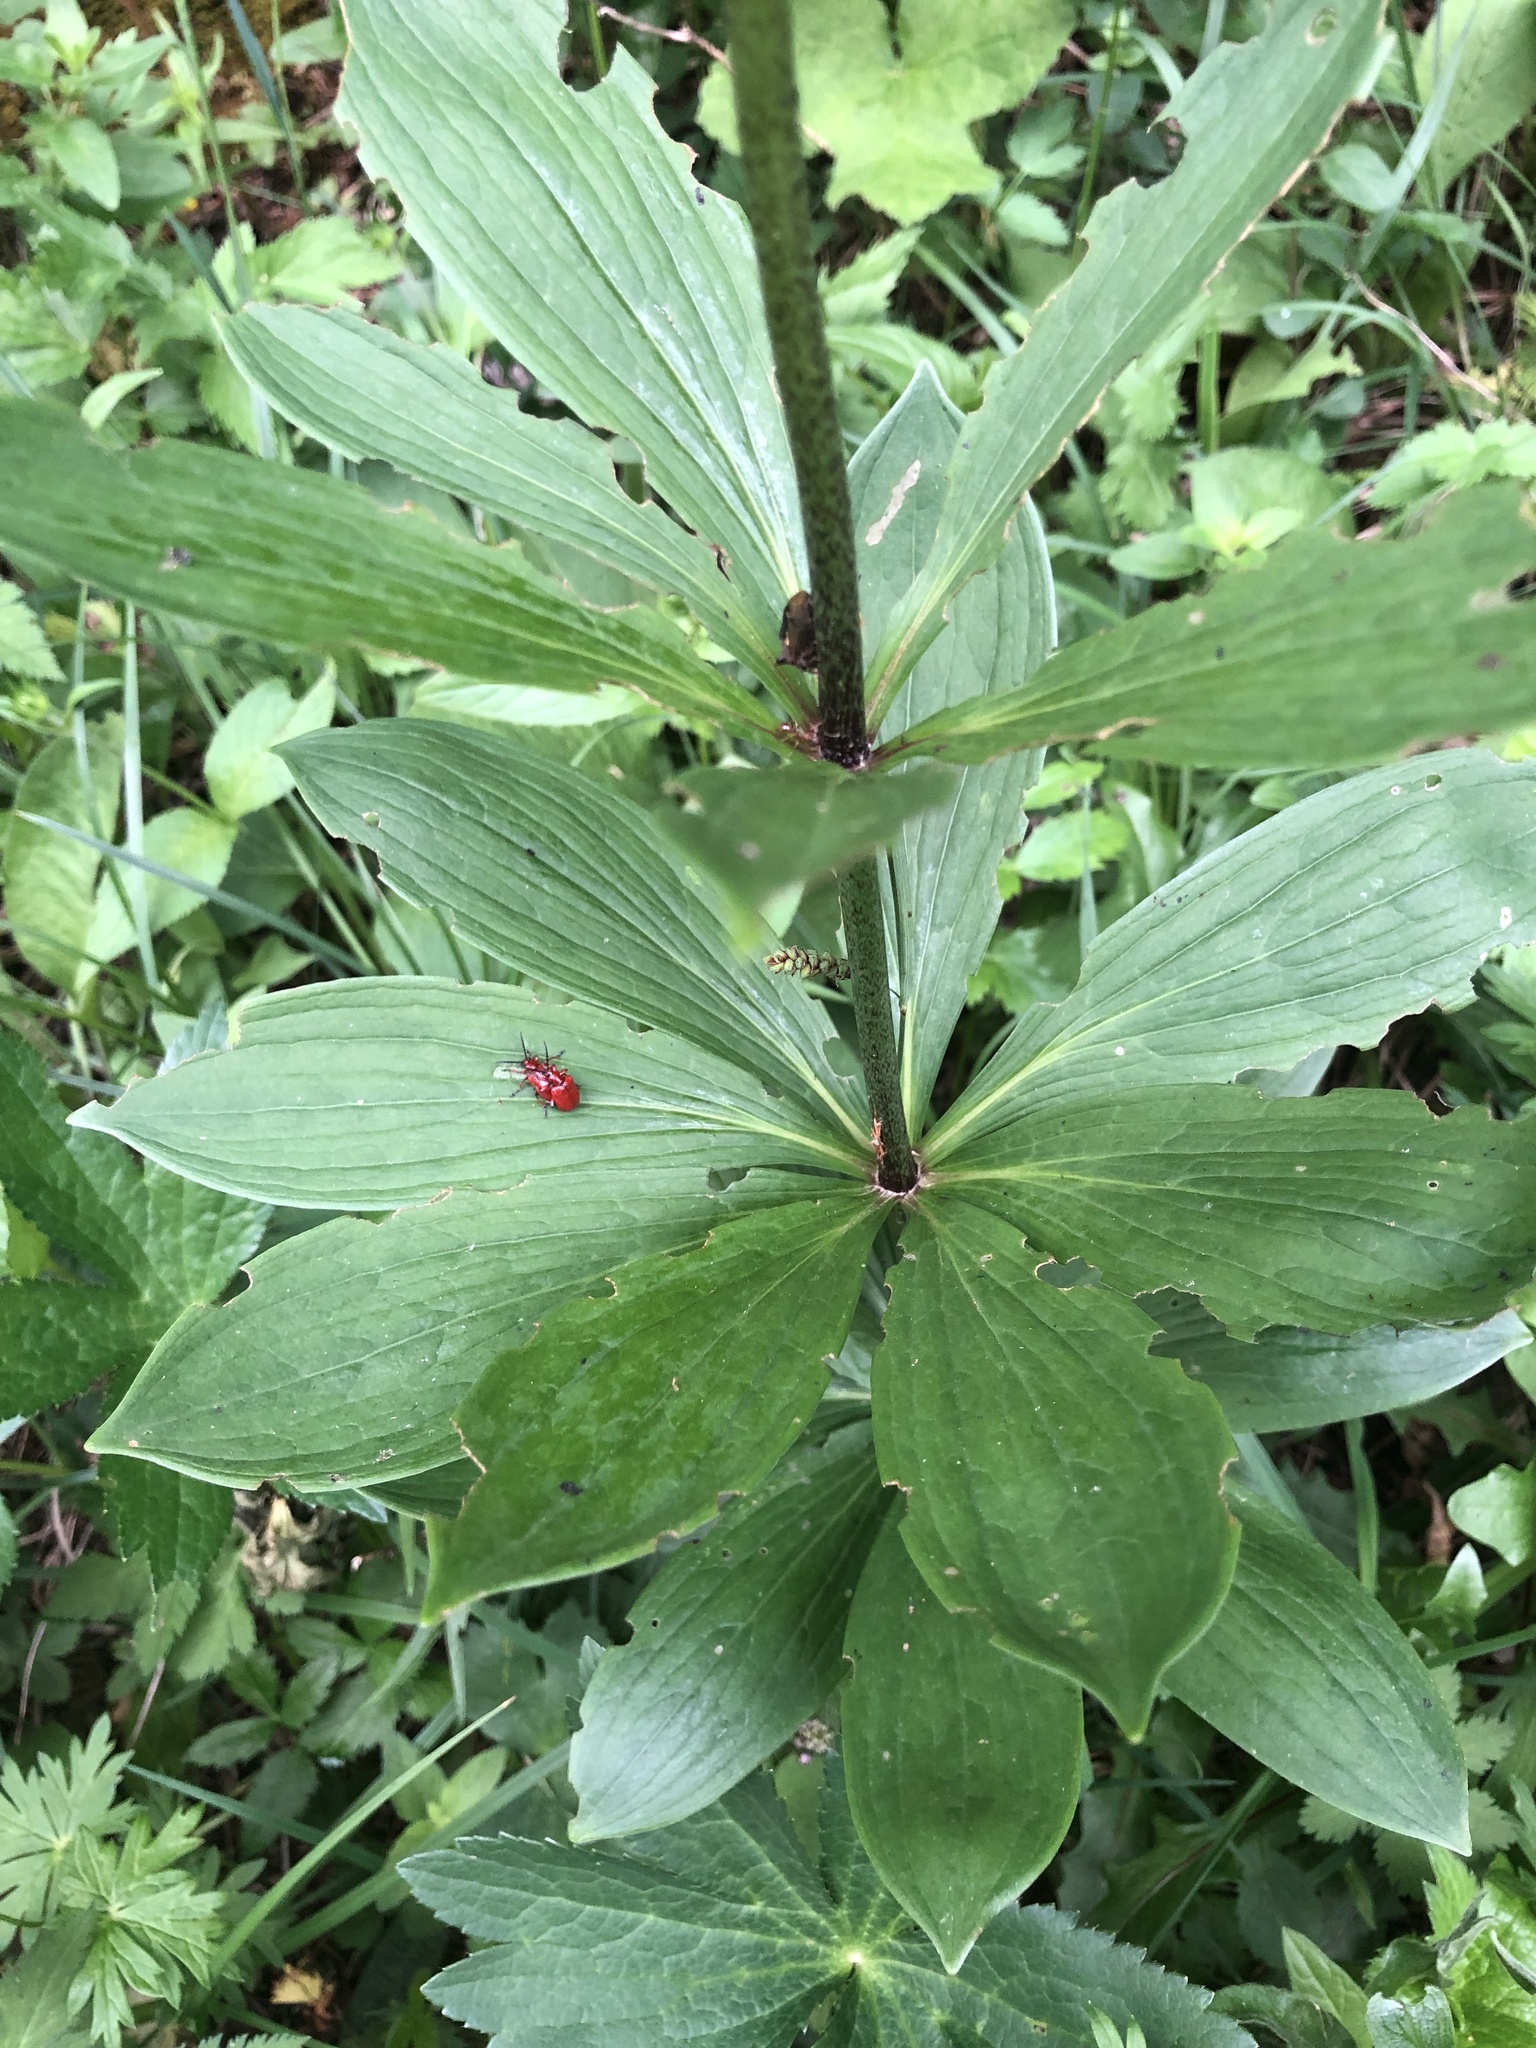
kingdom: Plantae
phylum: Tracheophyta
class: Liliopsida
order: Liliales
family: Liliaceae
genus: Lilium
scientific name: Lilium martagon
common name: Martagon lily
